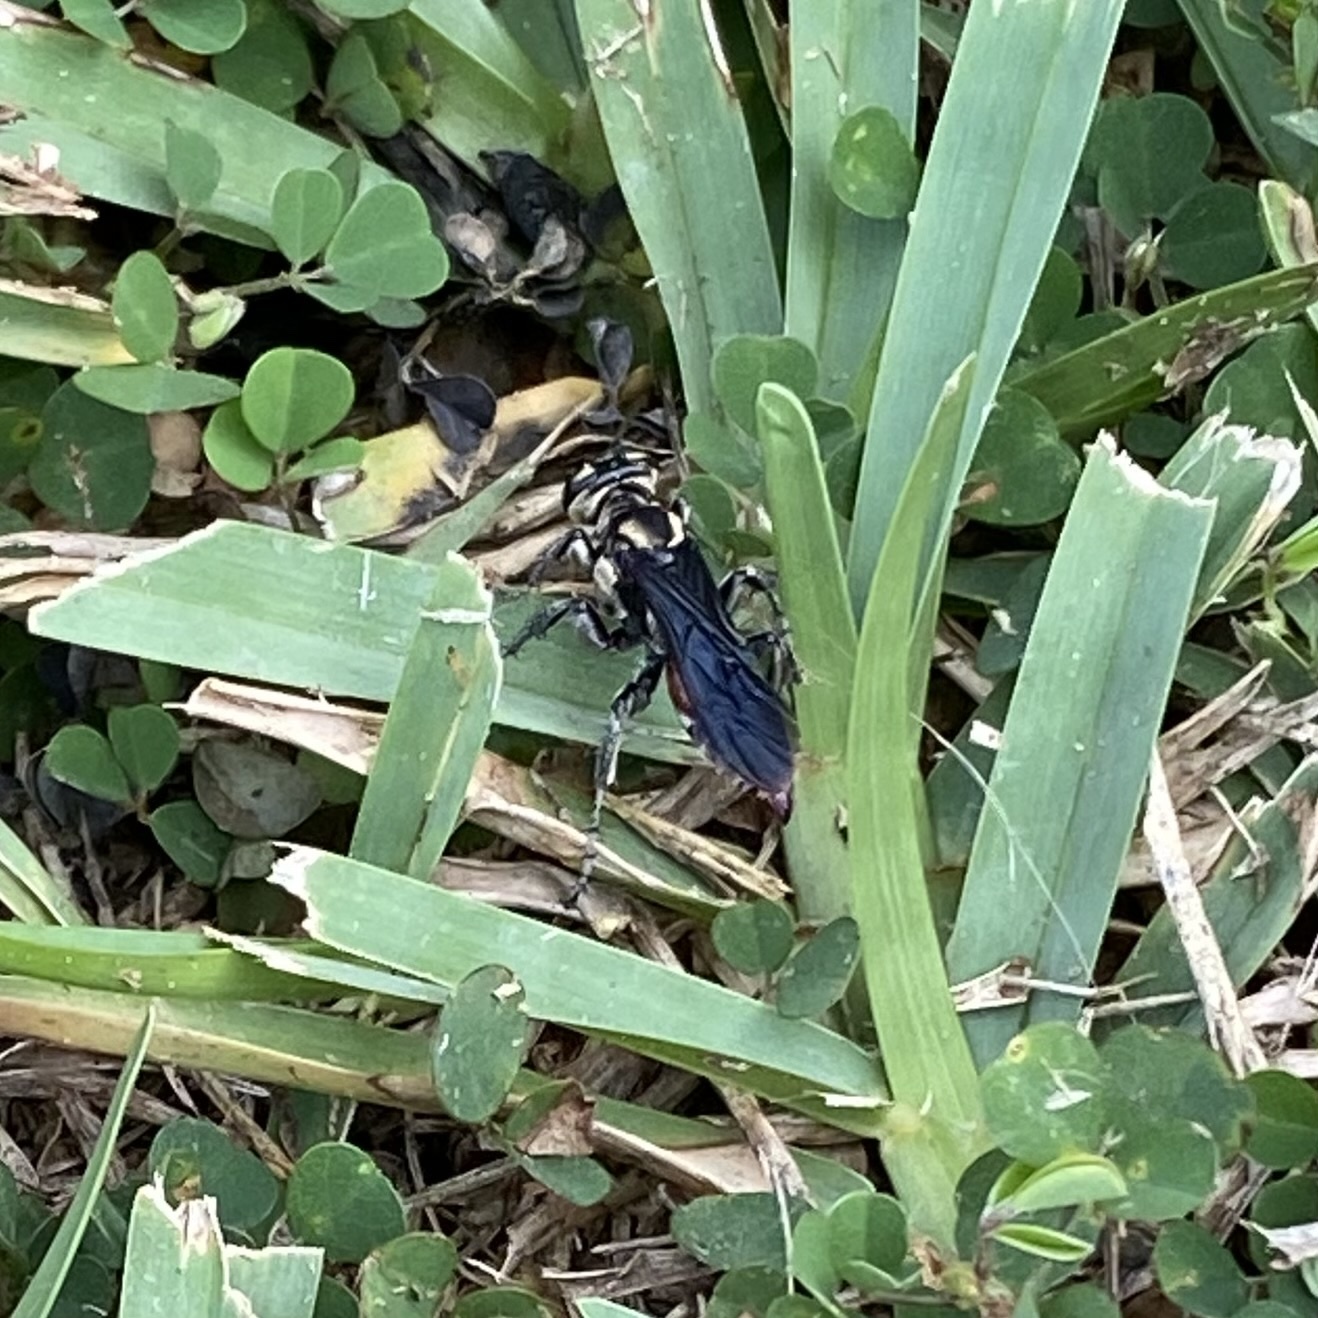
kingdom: Animalia
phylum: Arthropoda
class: Insecta
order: Hymenoptera
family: Crabronidae
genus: Larra
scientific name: Larra bicolor
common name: Wasp
